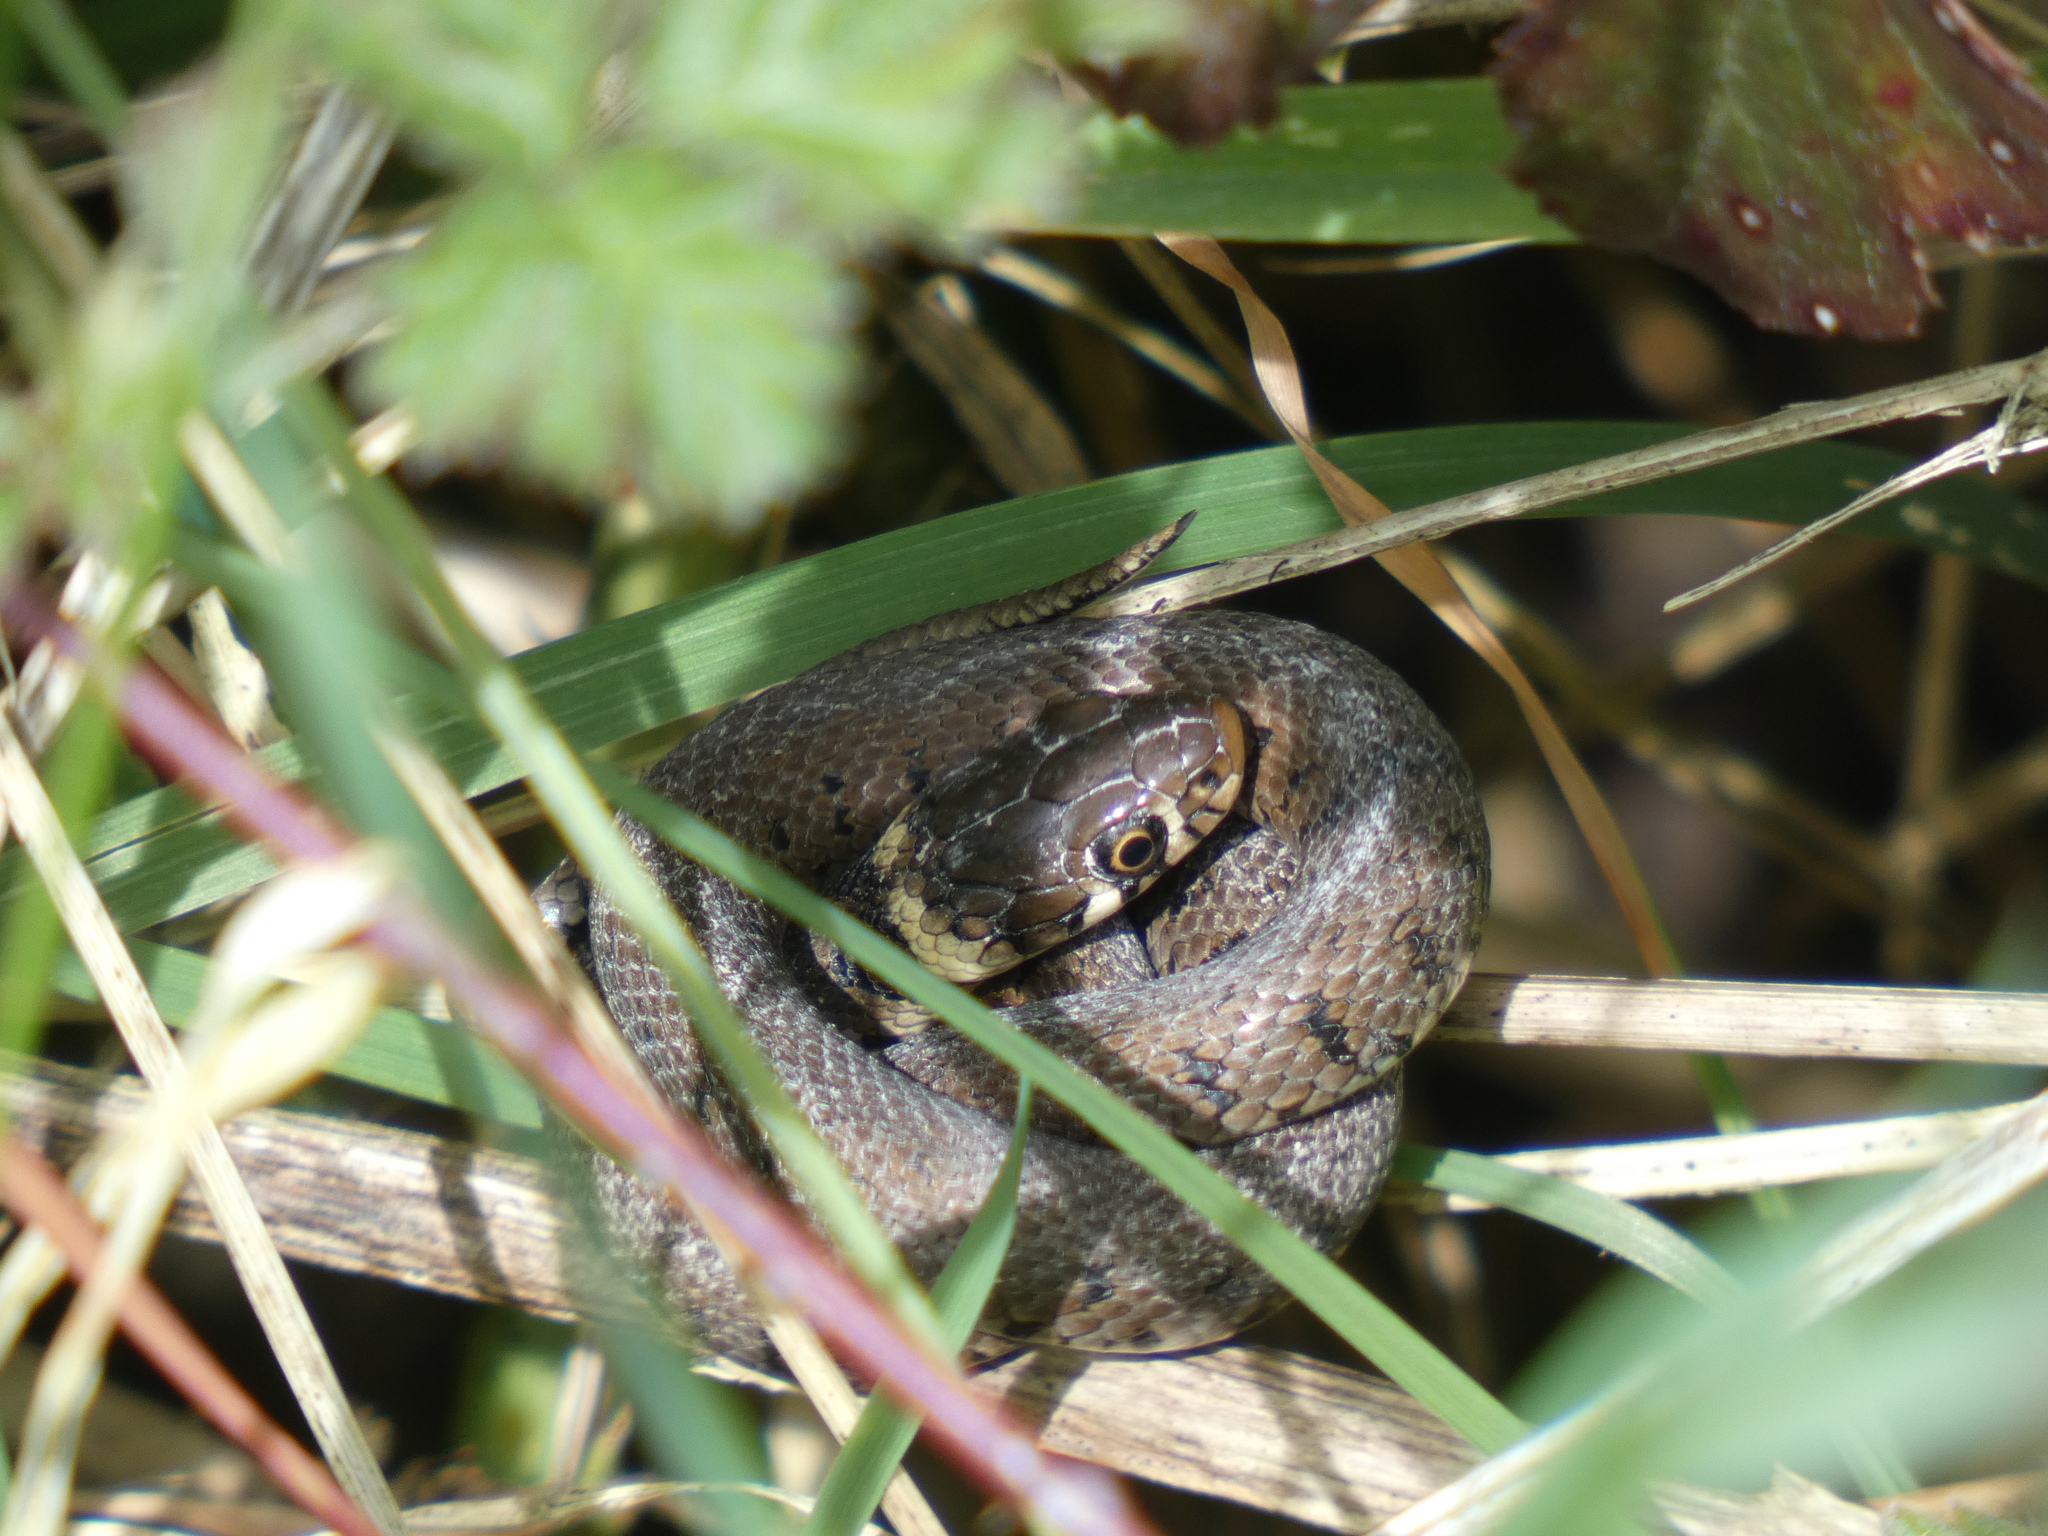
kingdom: Animalia
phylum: Chordata
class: Squamata
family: Colubridae
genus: Natrix
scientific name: Natrix helvetica
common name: Banded grass snake
